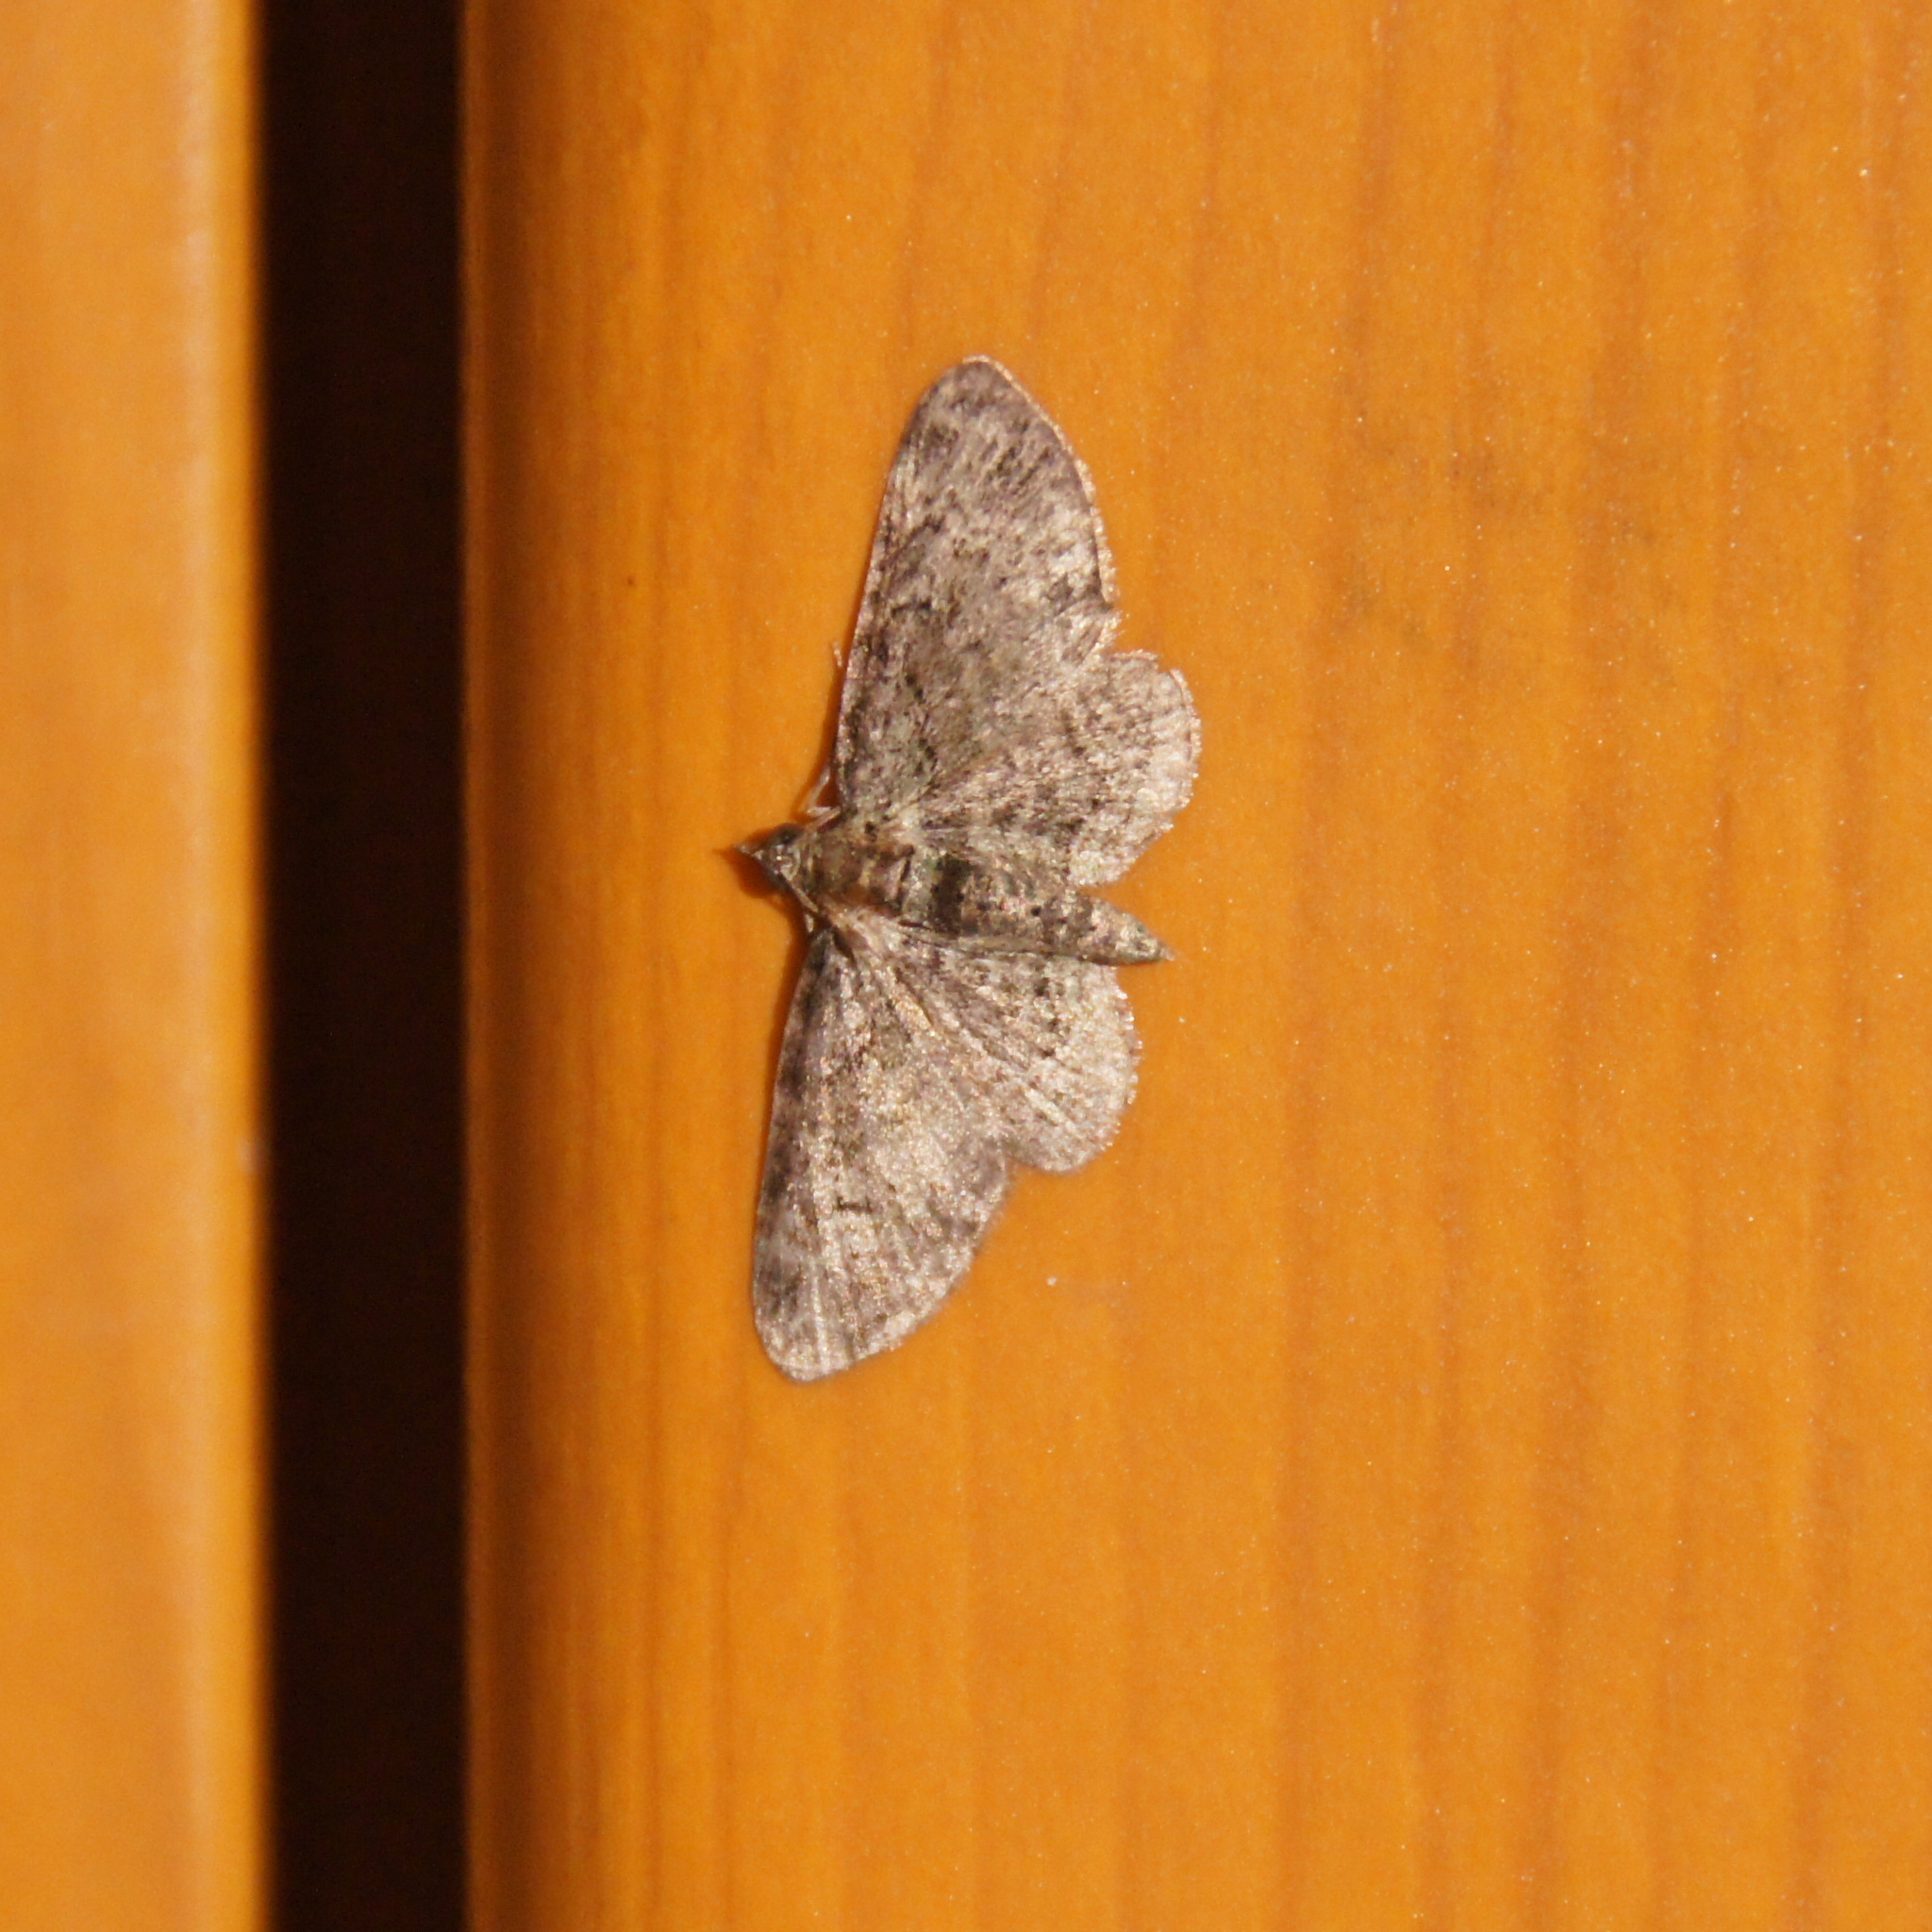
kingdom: Animalia
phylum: Arthropoda
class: Insecta
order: Lepidoptera
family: Geometridae
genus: Pasiphila
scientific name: Pasiphila rectangulata
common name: Green pug
